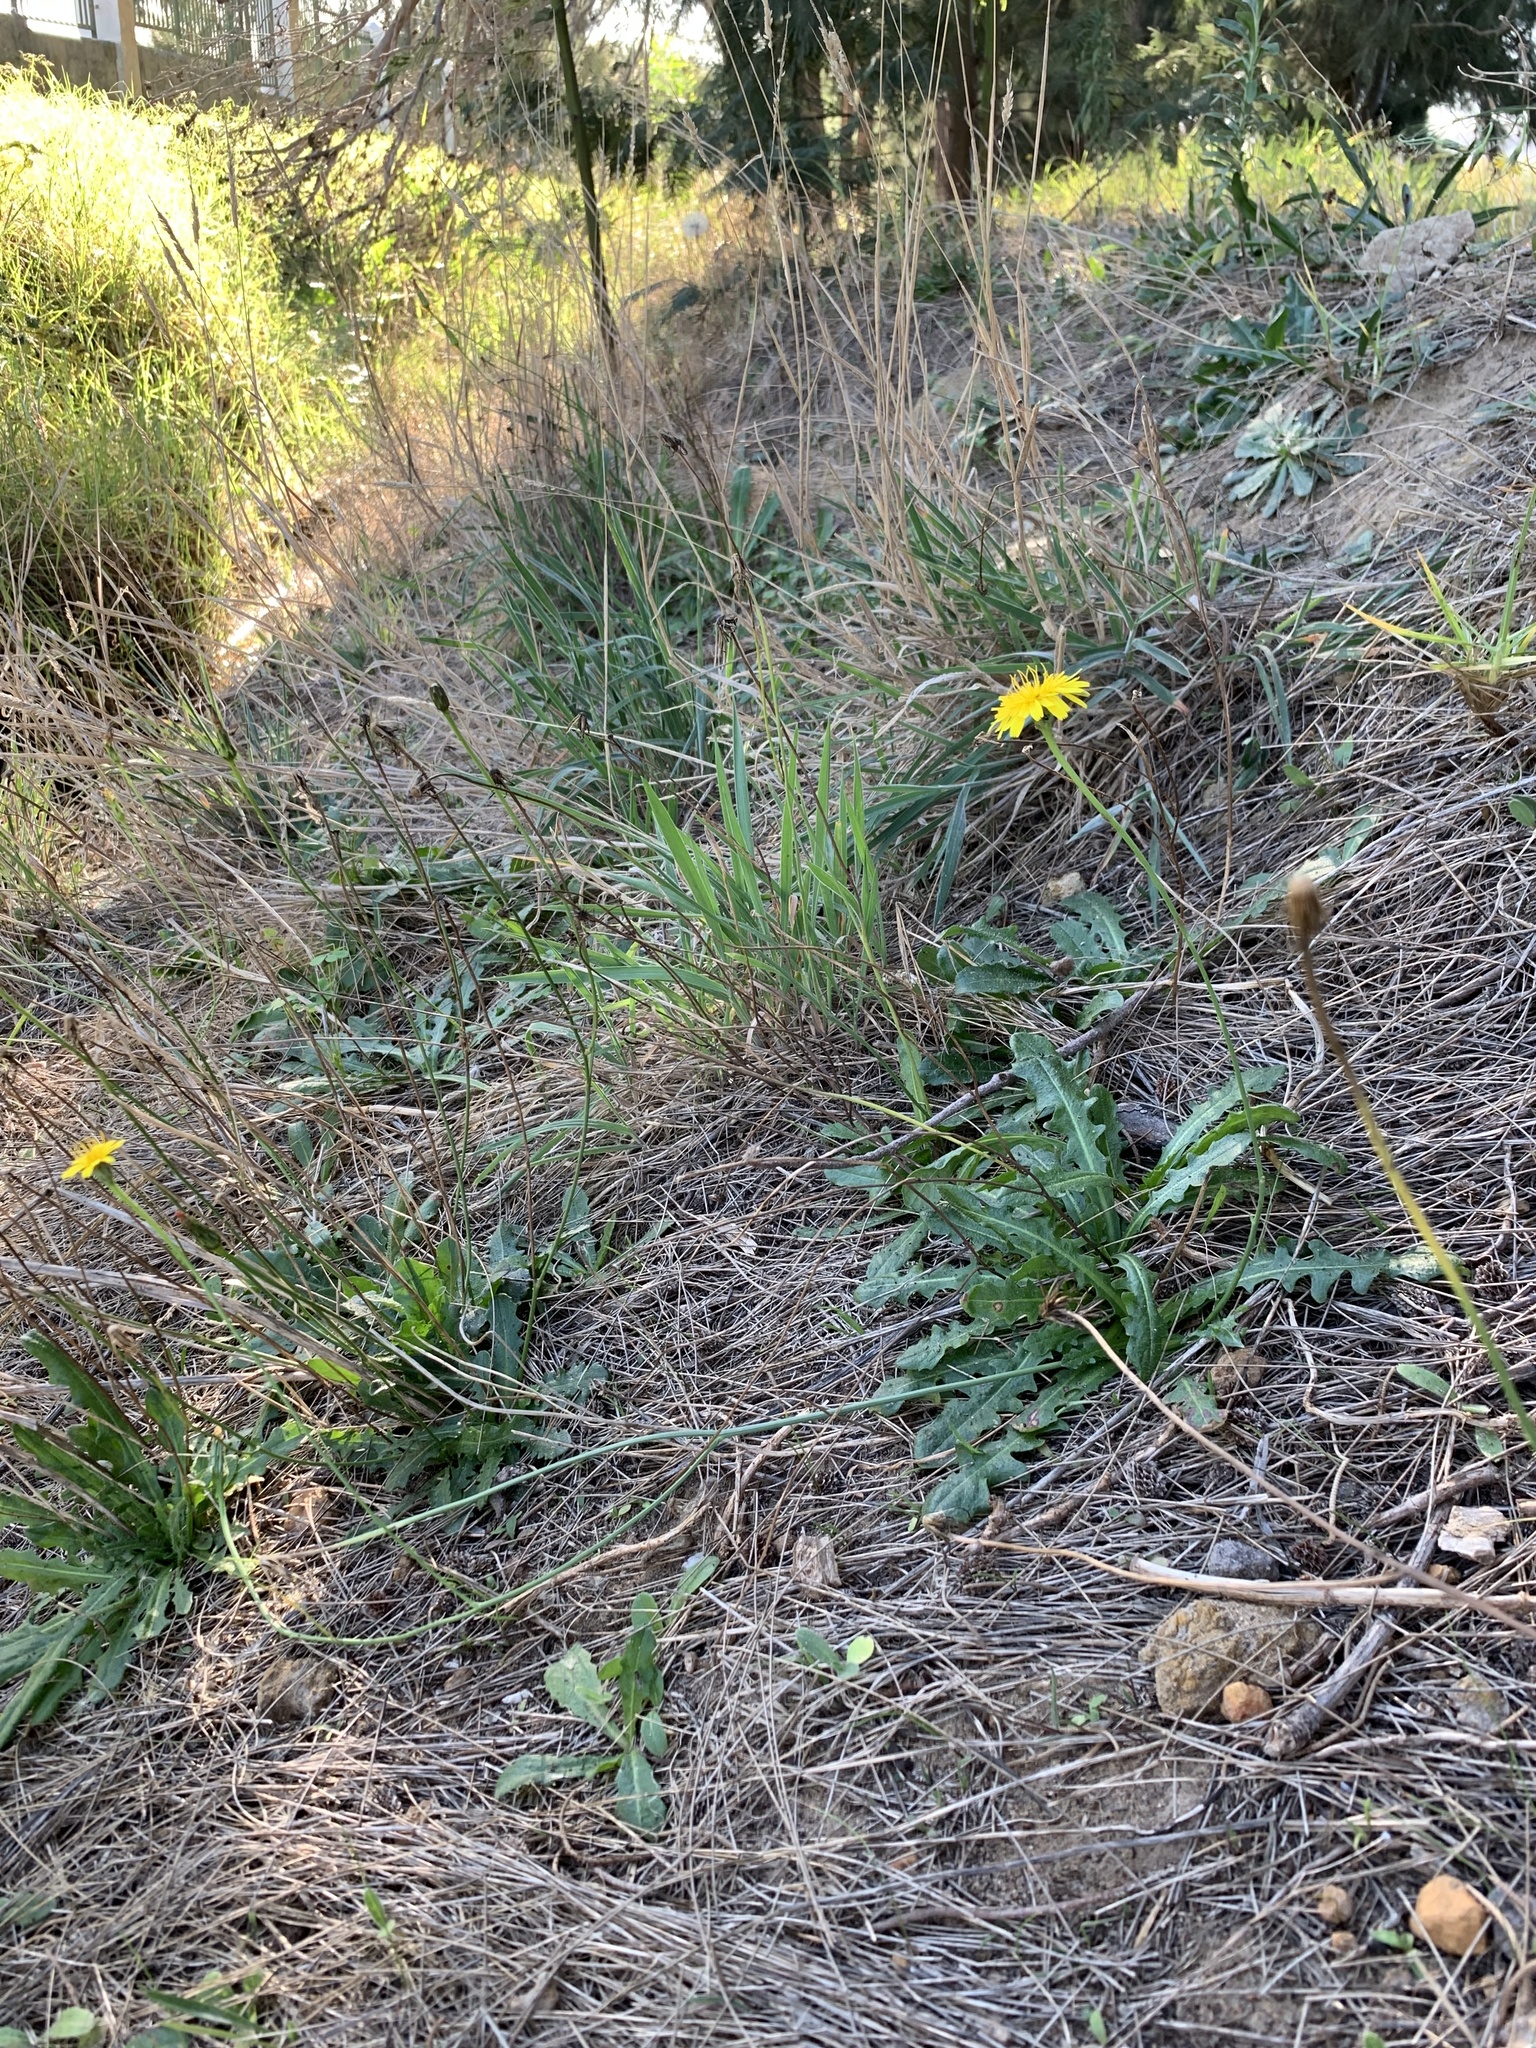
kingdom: Plantae
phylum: Tracheophyta
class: Magnoliopsida
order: Asterales
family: Asteraceae
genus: Hypochaeris
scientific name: Hypochaeris radicata
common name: Flatweed
